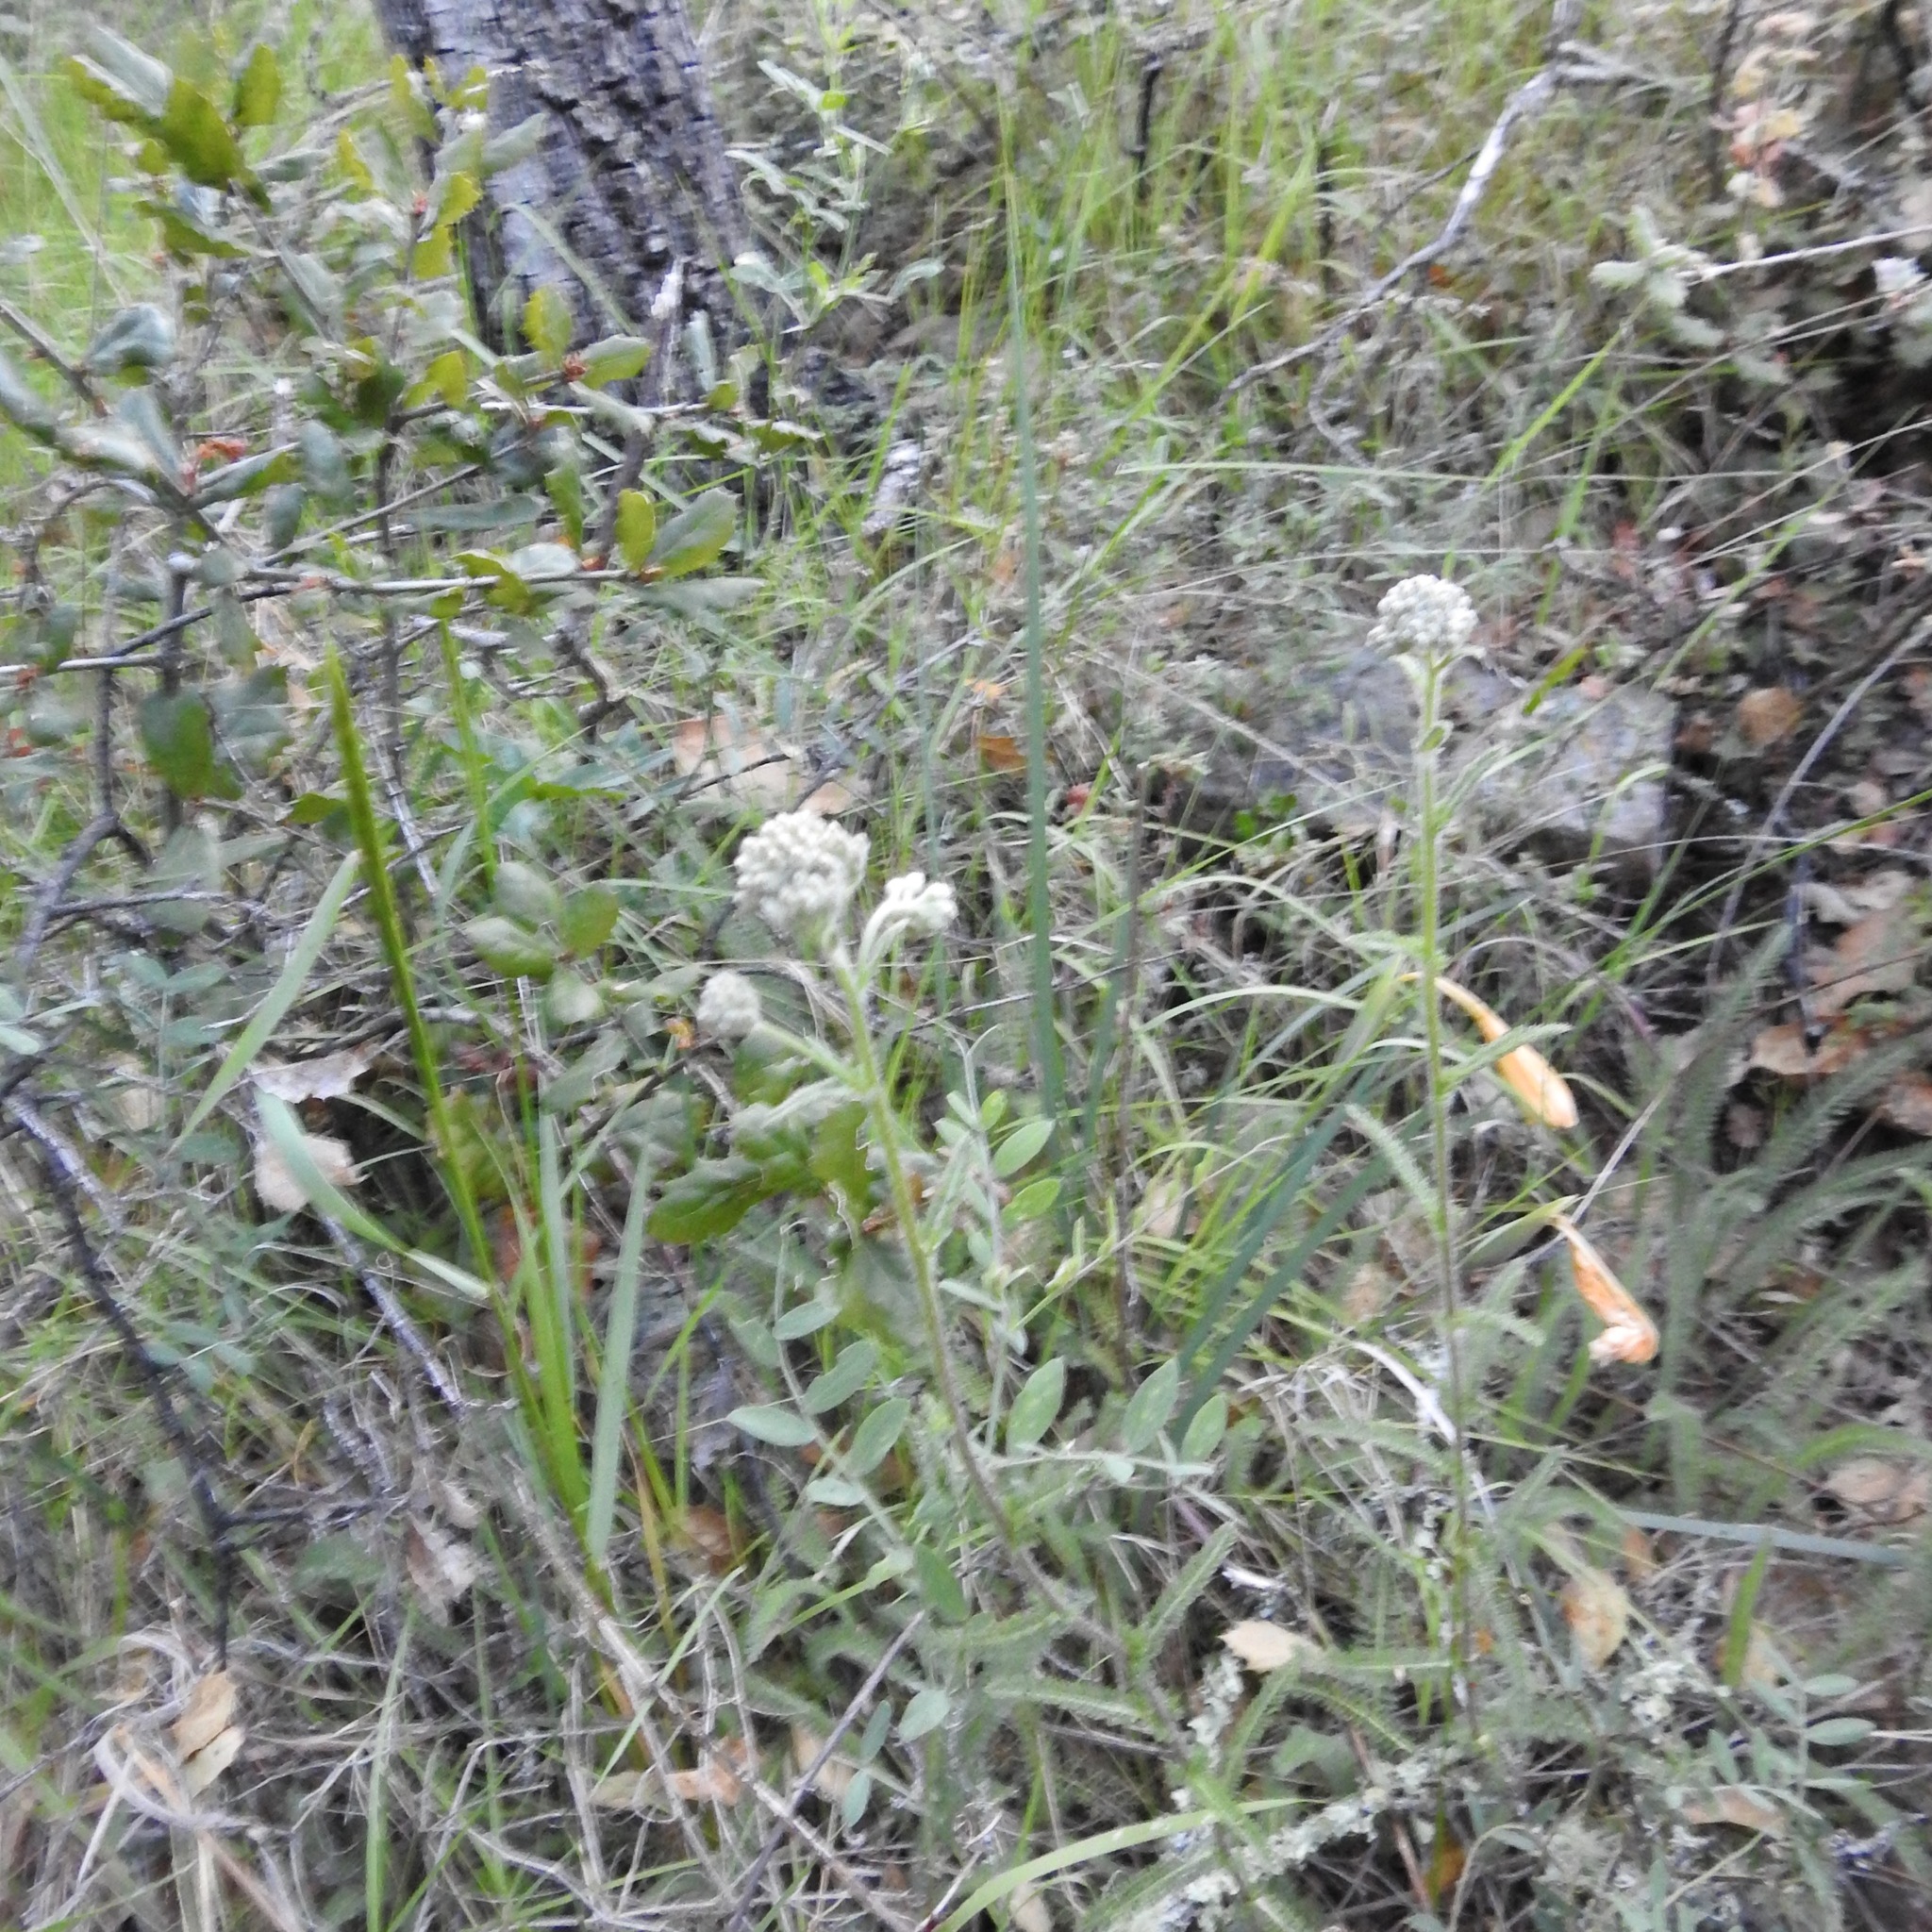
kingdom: Plantae
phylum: Tracheophyta
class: Magnoliopsida
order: Asterales
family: Asteraceae
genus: Achillea
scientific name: Achillea millefolium
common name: Yarrow
